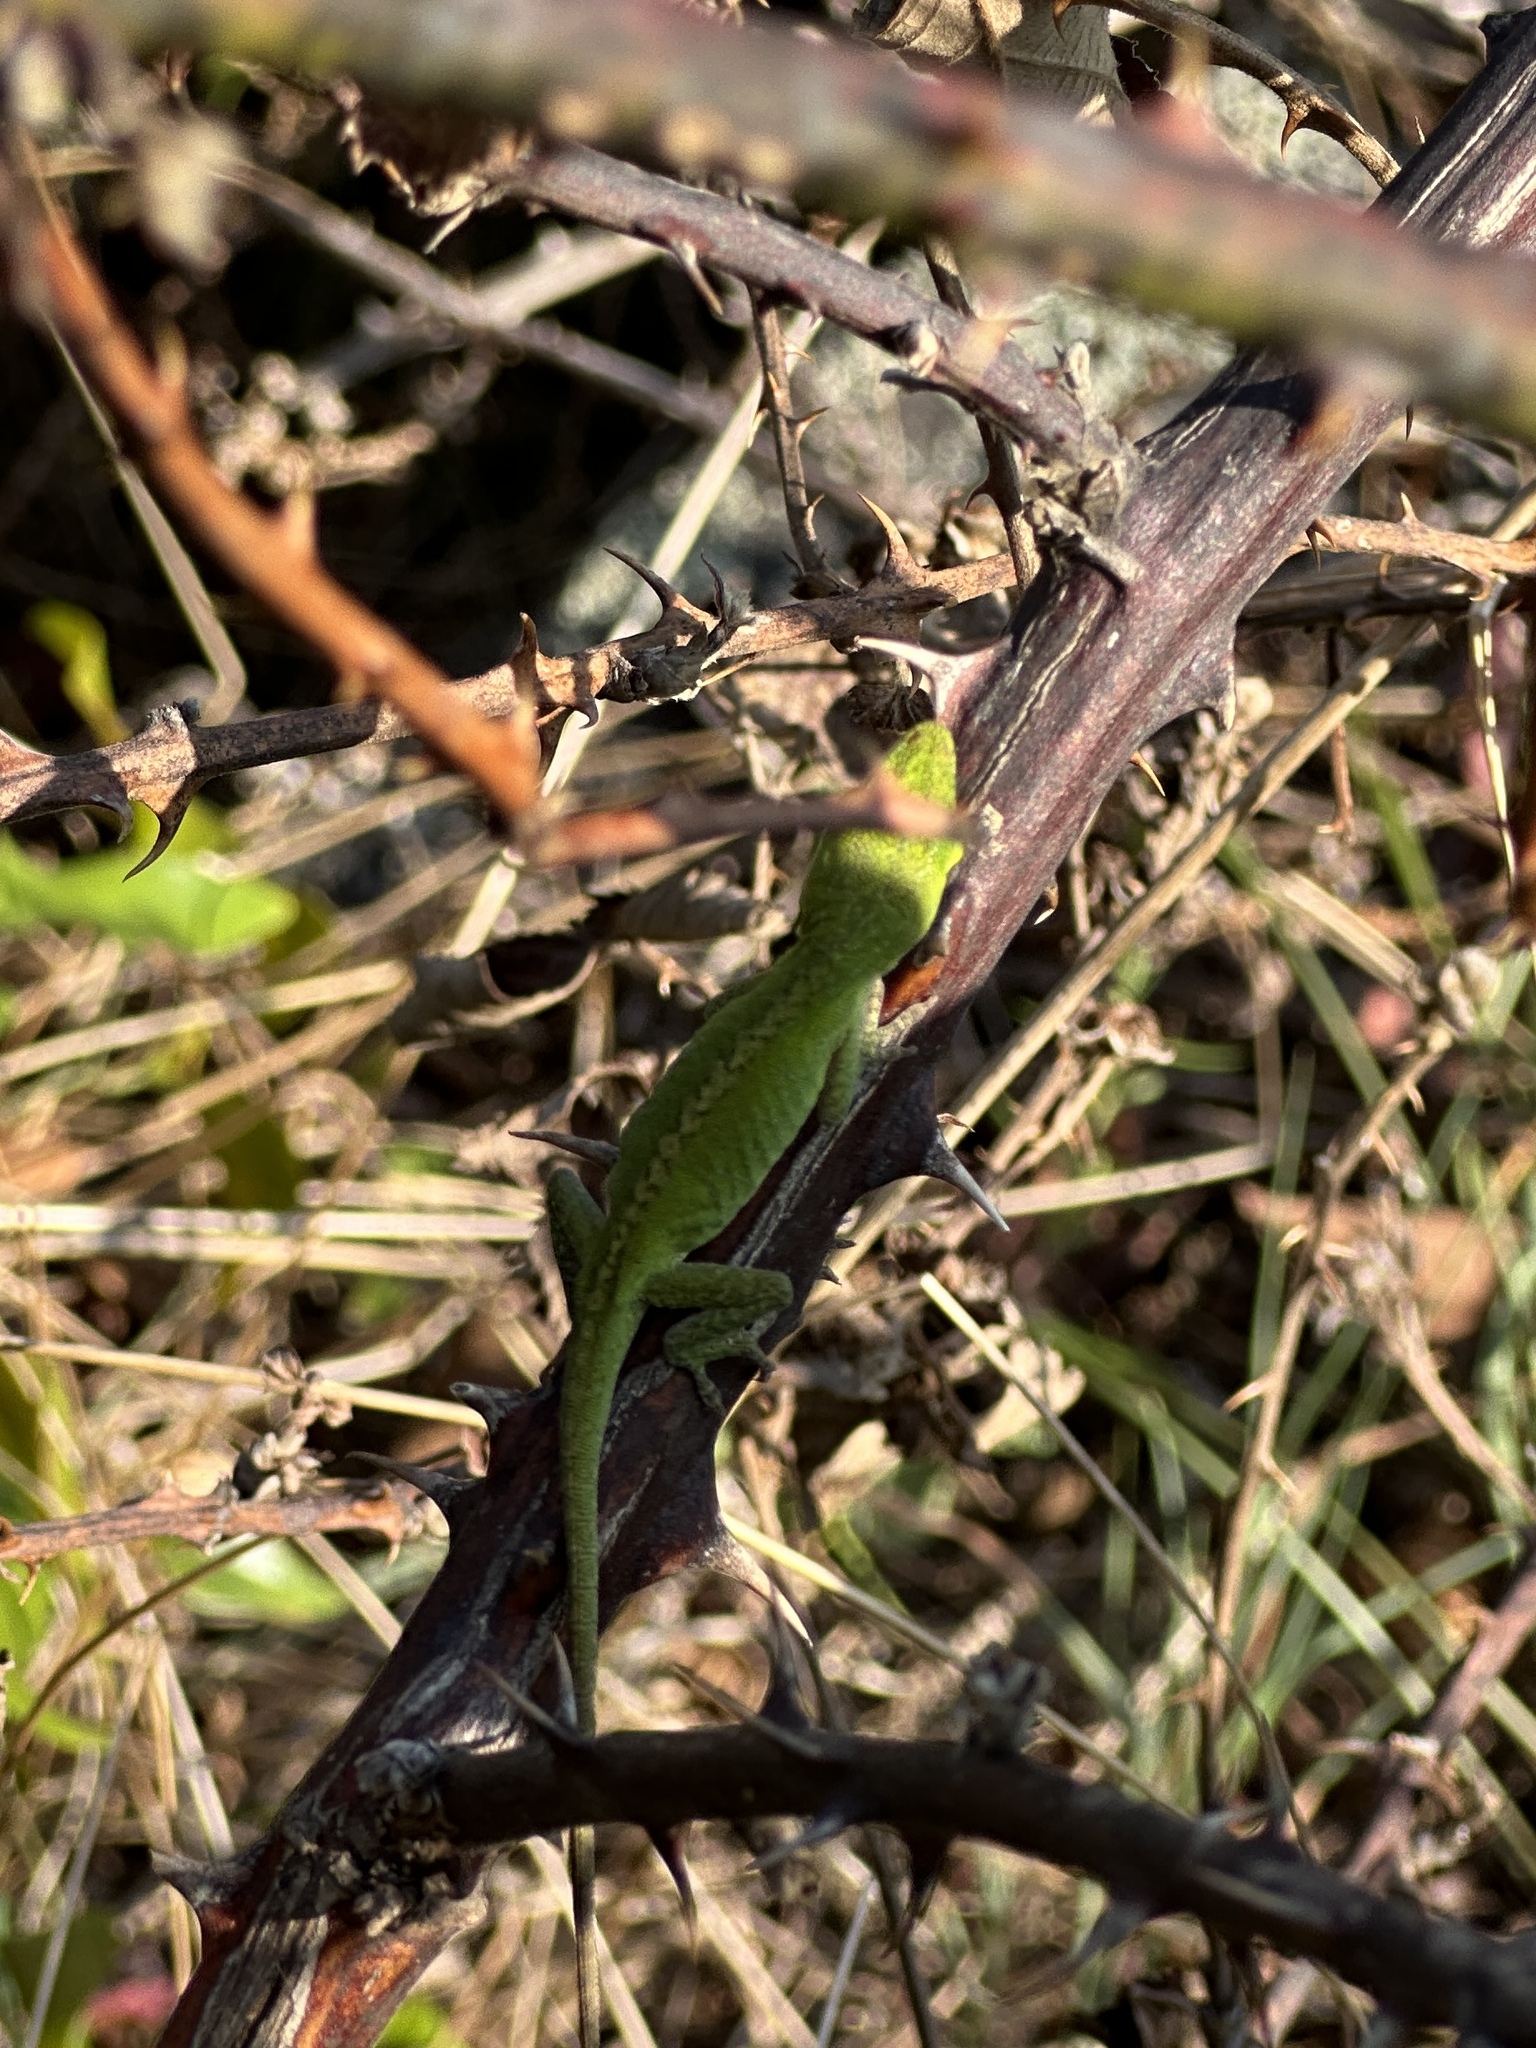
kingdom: Animalia
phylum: Chordata
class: Squamata
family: Dactyloidae
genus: Anolis
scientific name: Anolis carolinensis
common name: Green anole
